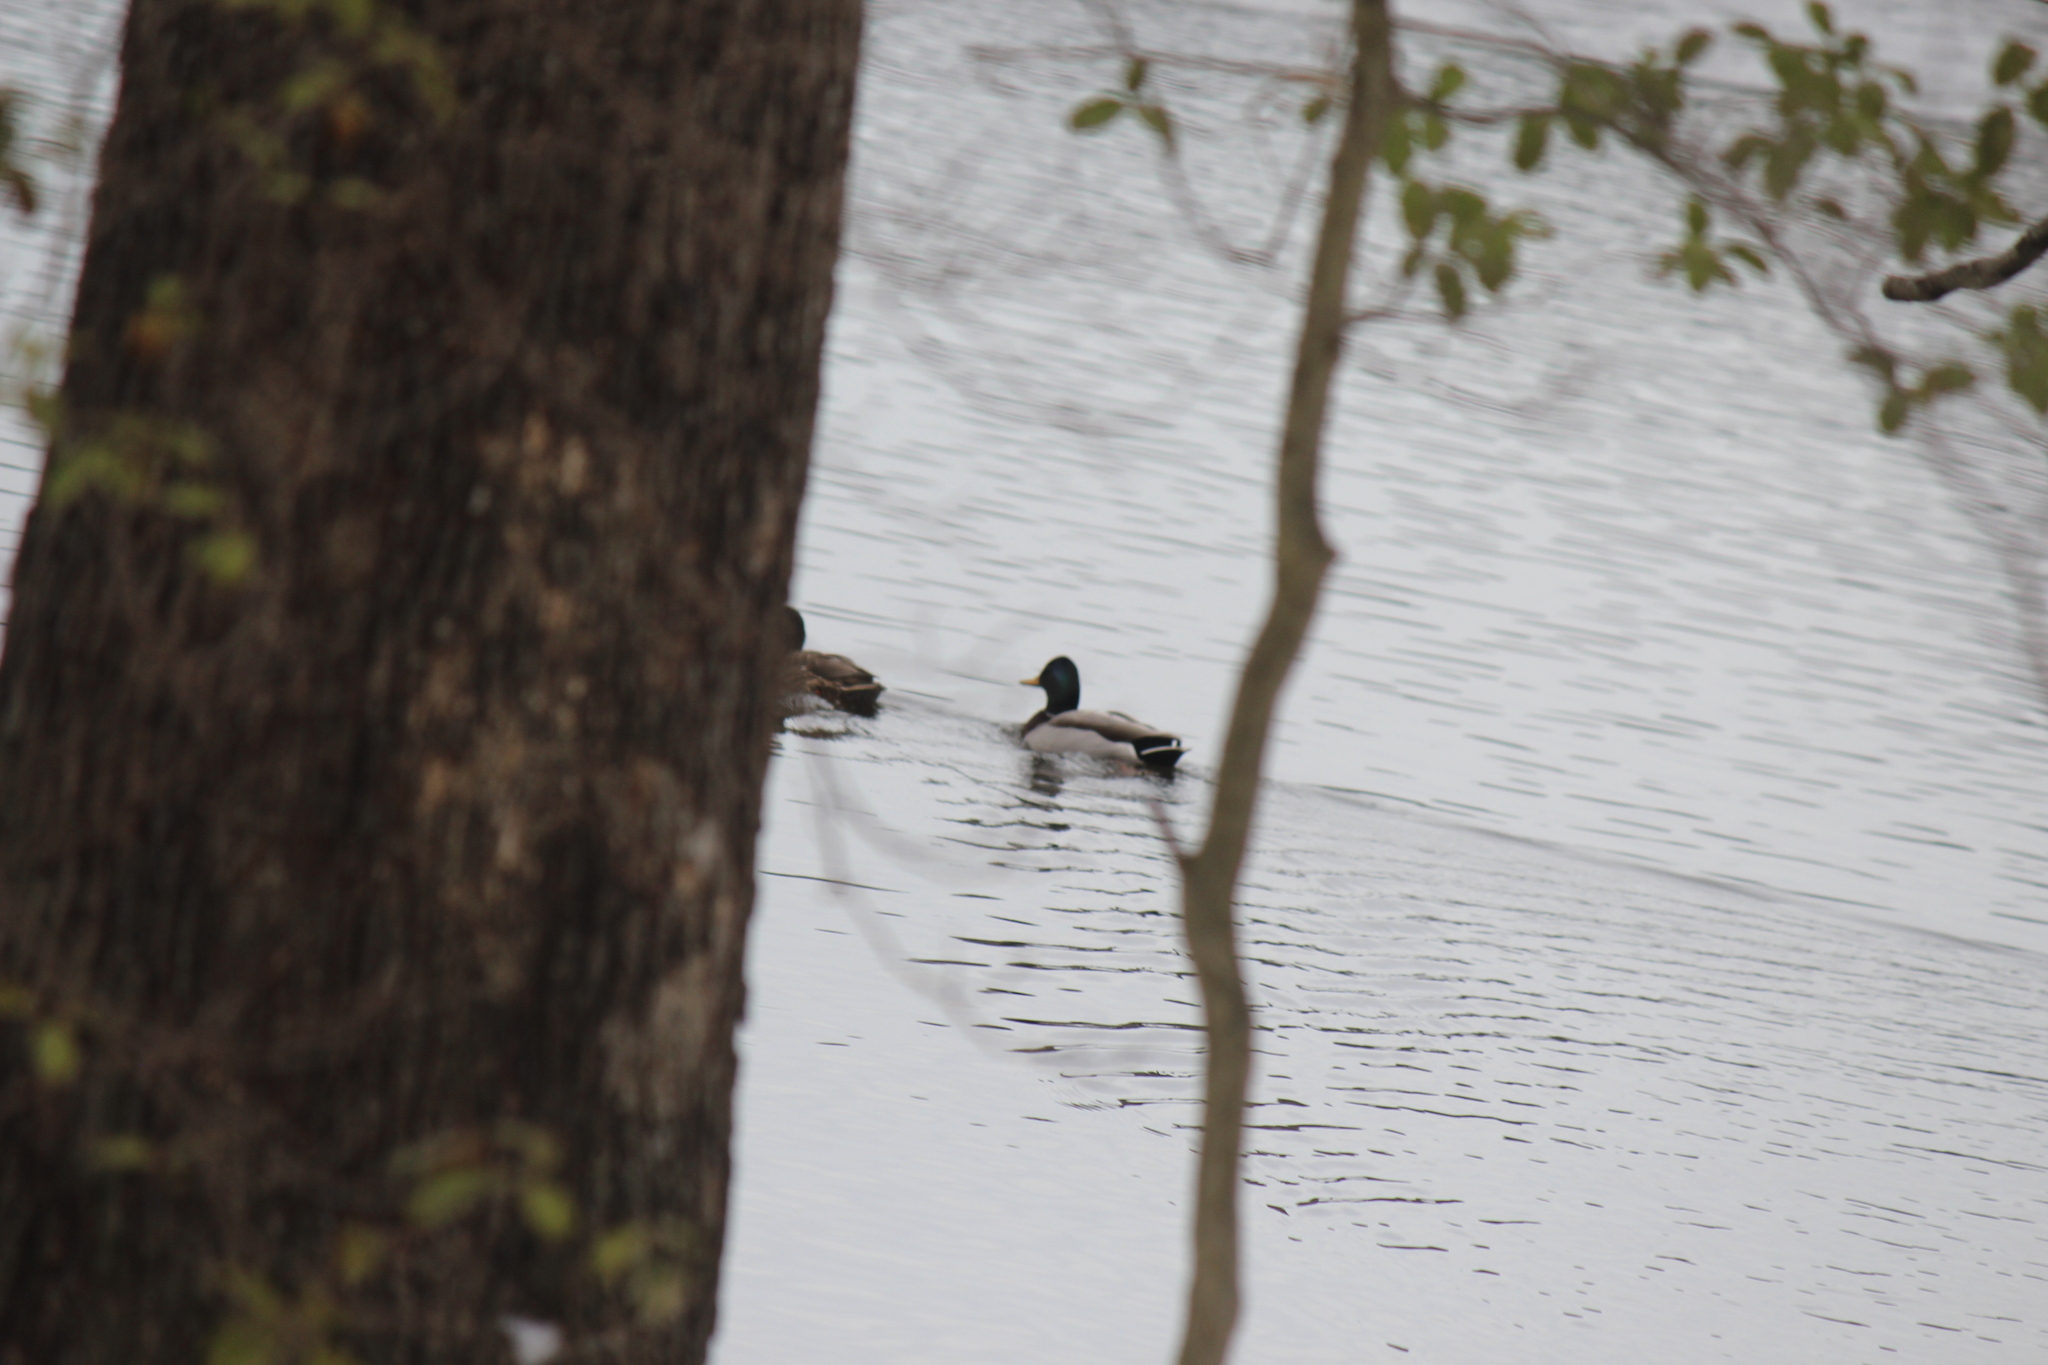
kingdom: Animalia
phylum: Chordata
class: Aves
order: Anseriformes
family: Anatidae
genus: Anas
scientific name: Anas platyrhynchos
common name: Mallard
